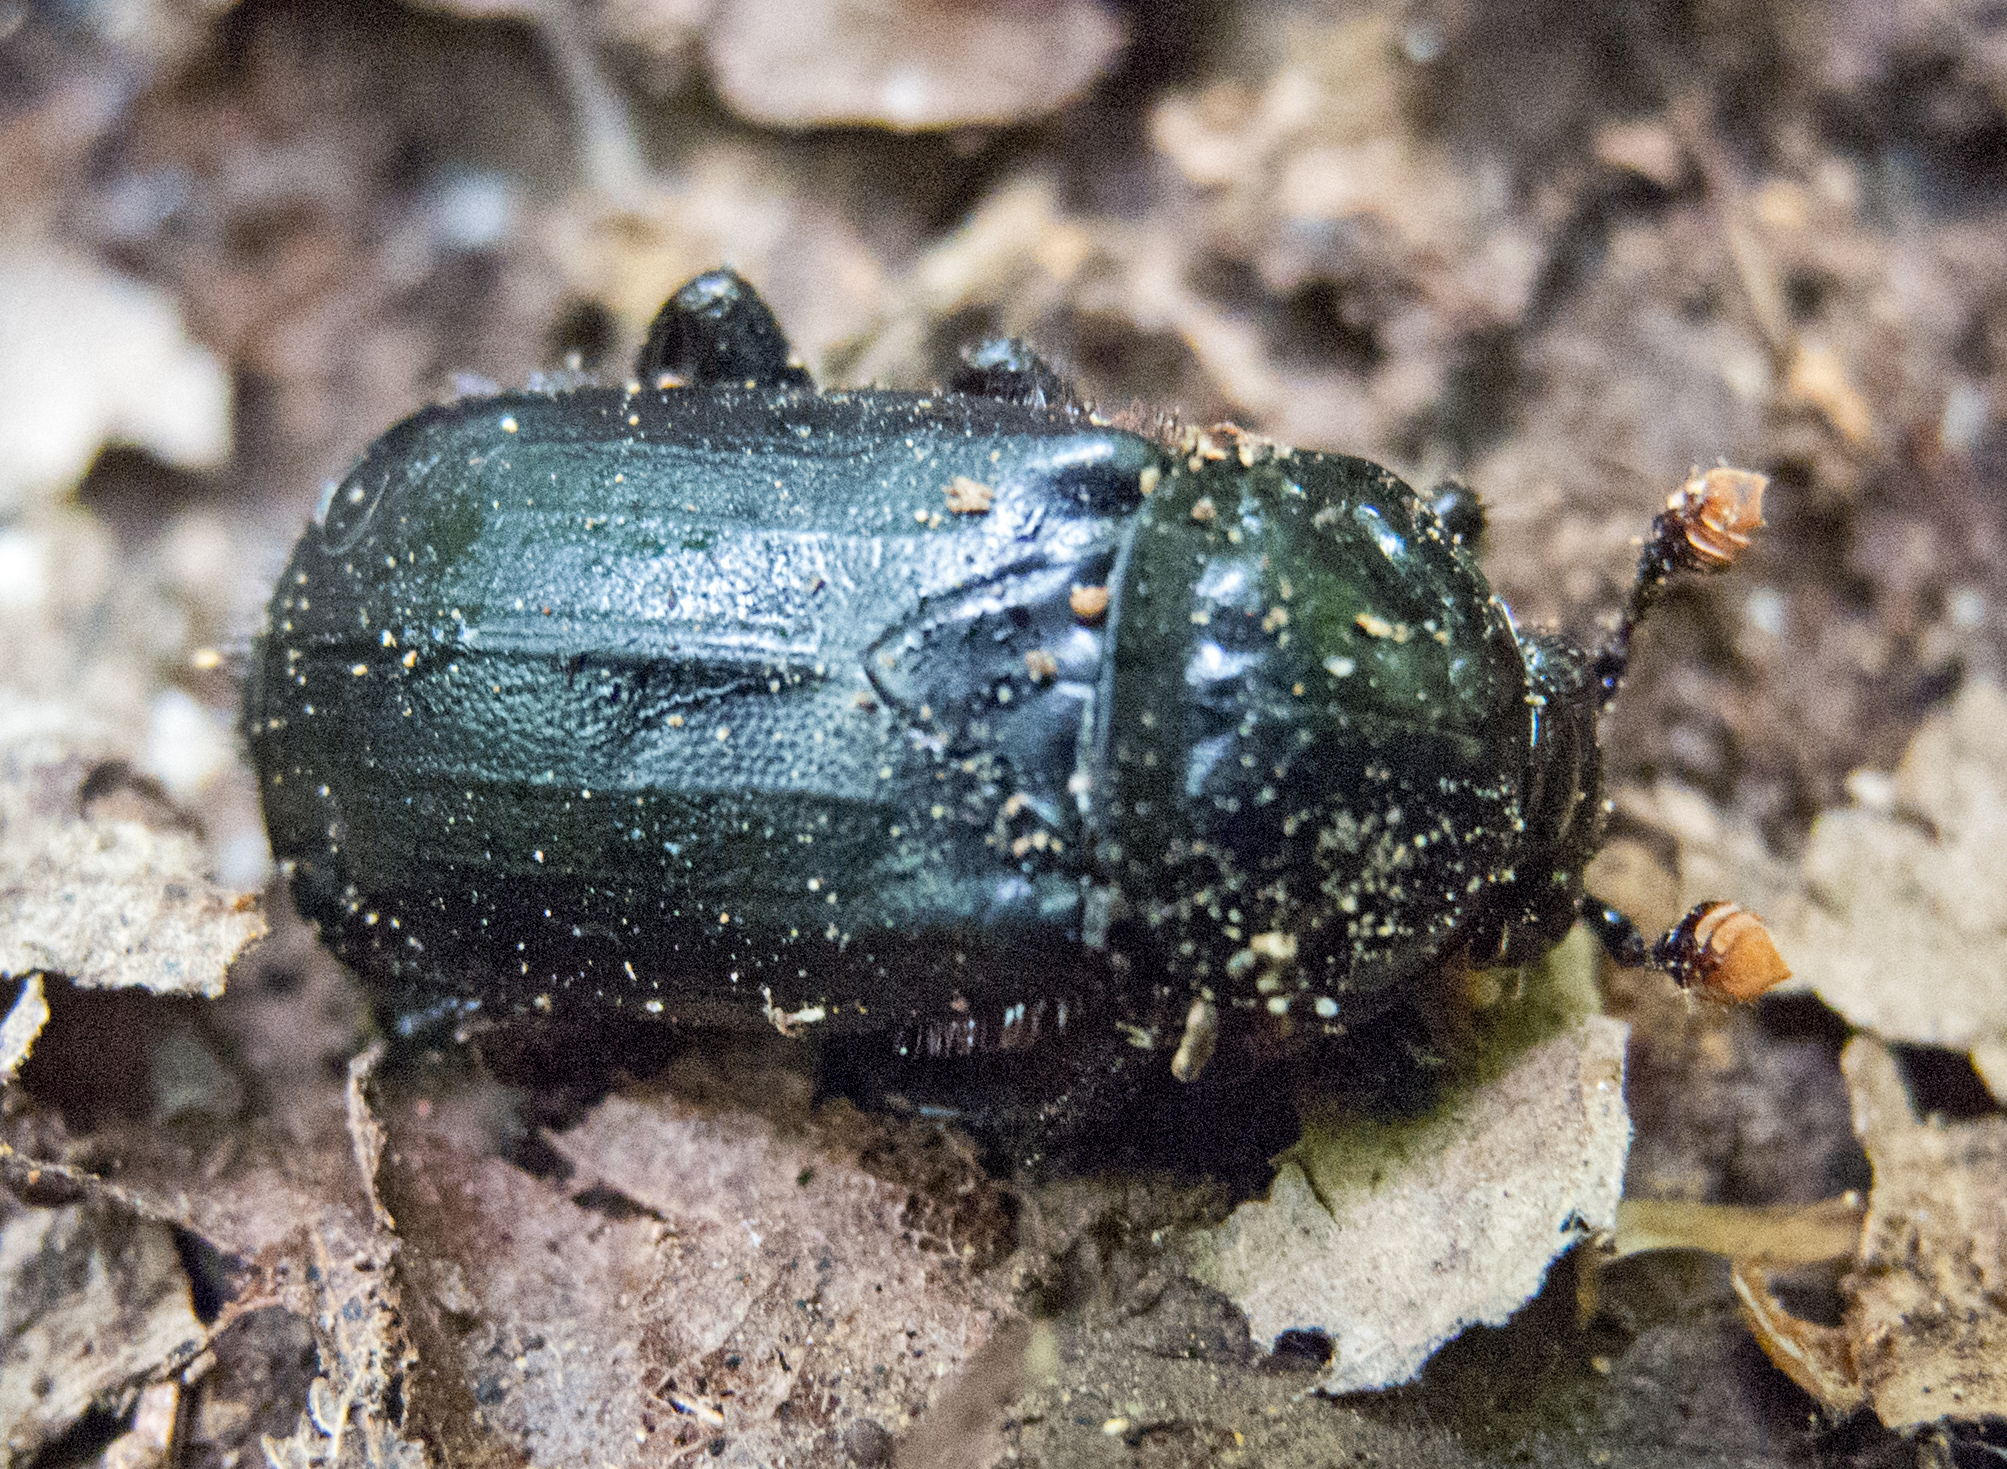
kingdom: Animalia
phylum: Arthropoda
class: Insecta
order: Coleoptera
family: Staphylinidae
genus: Nicrophorus
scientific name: Nicrophorus humator
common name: Black sexton beetle
